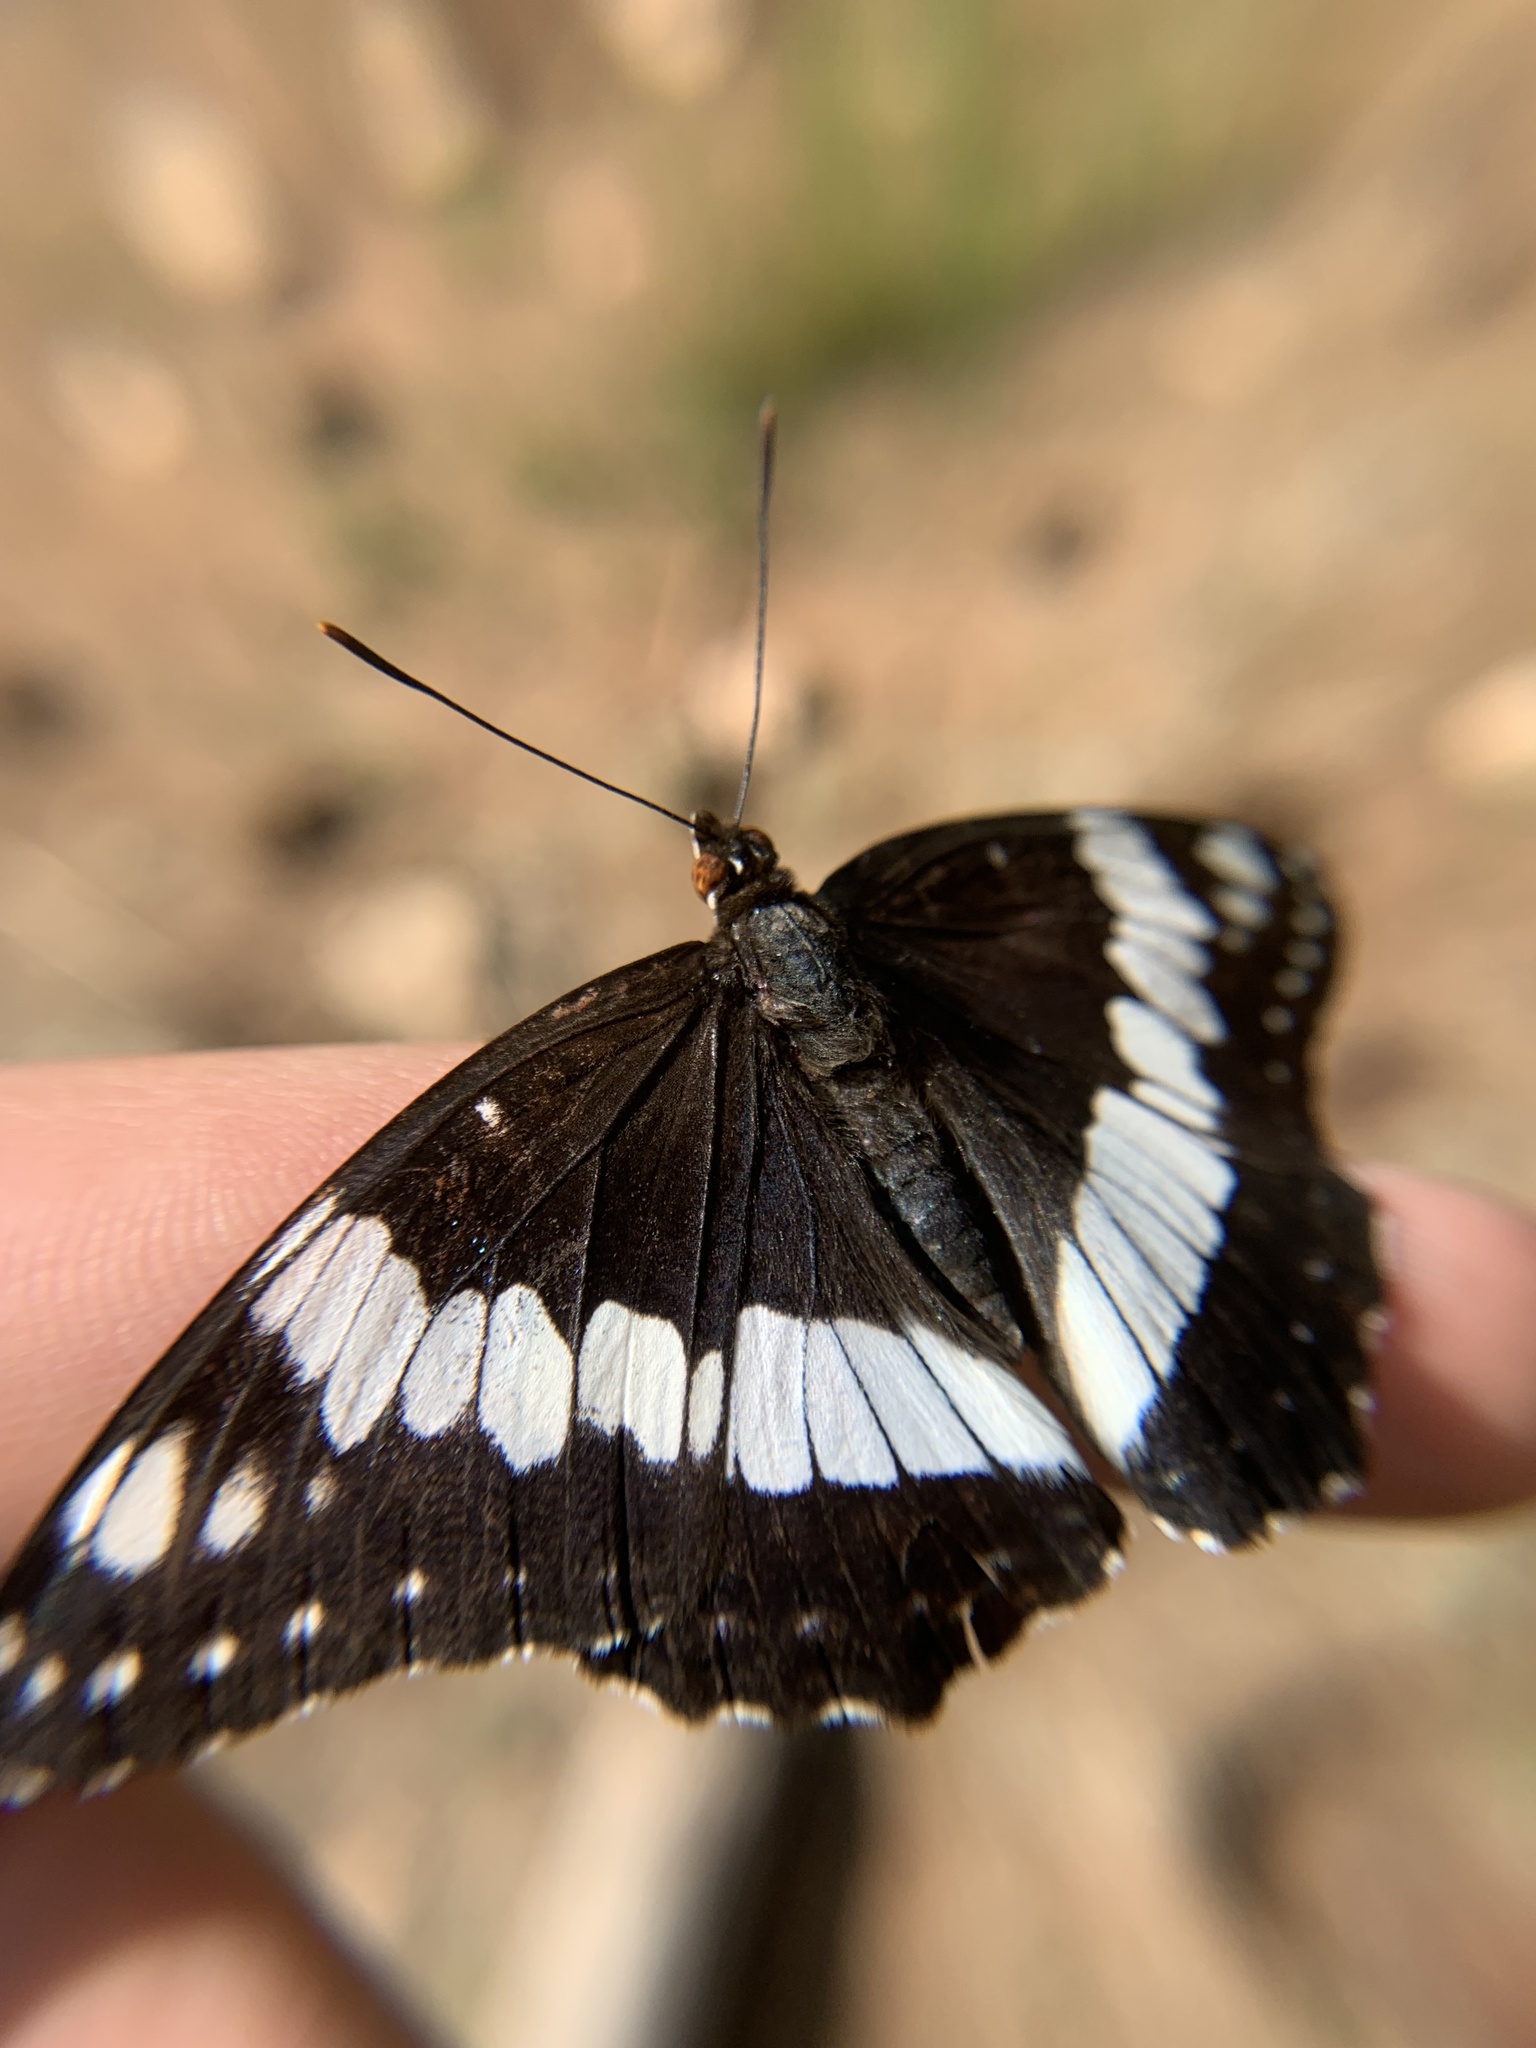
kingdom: Animalia
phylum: Arthropoda
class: Insecta
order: Lepidoptera
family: Nymphalidae
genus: Limenitis
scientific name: Limenitis weidemeyerii
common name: Weidemeyer's admiral
